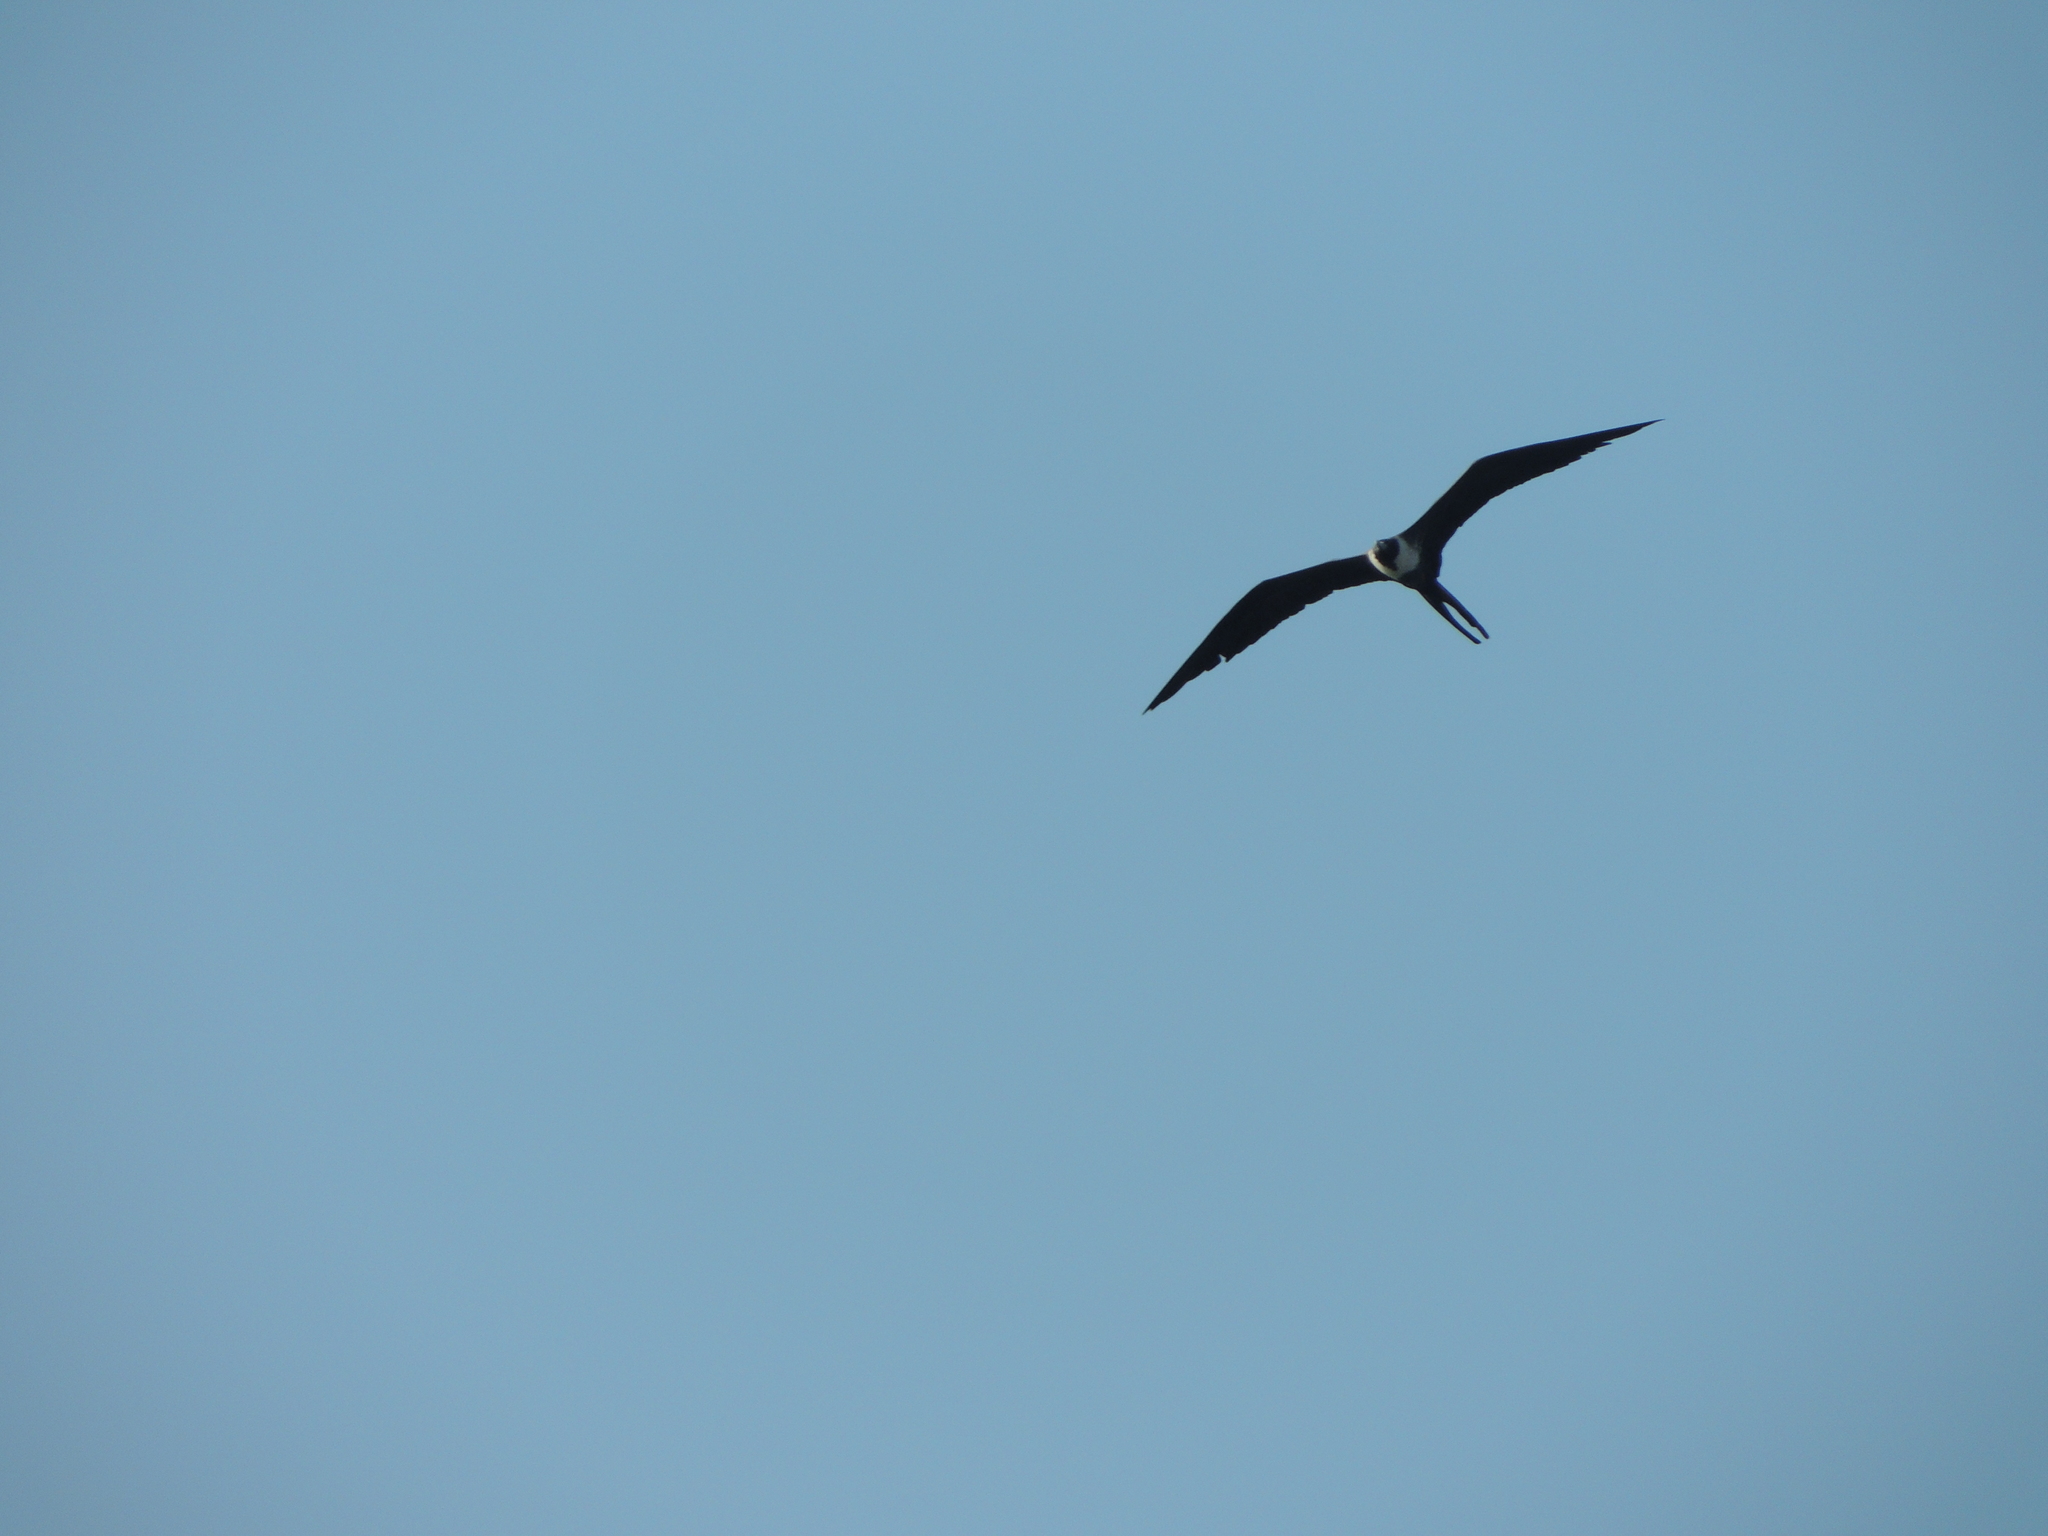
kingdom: Animalia
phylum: Chordata
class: Aves
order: Suliformes
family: Fregatidae
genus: Fregata
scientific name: Fregata magnificens
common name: Magnificent frigatebird
